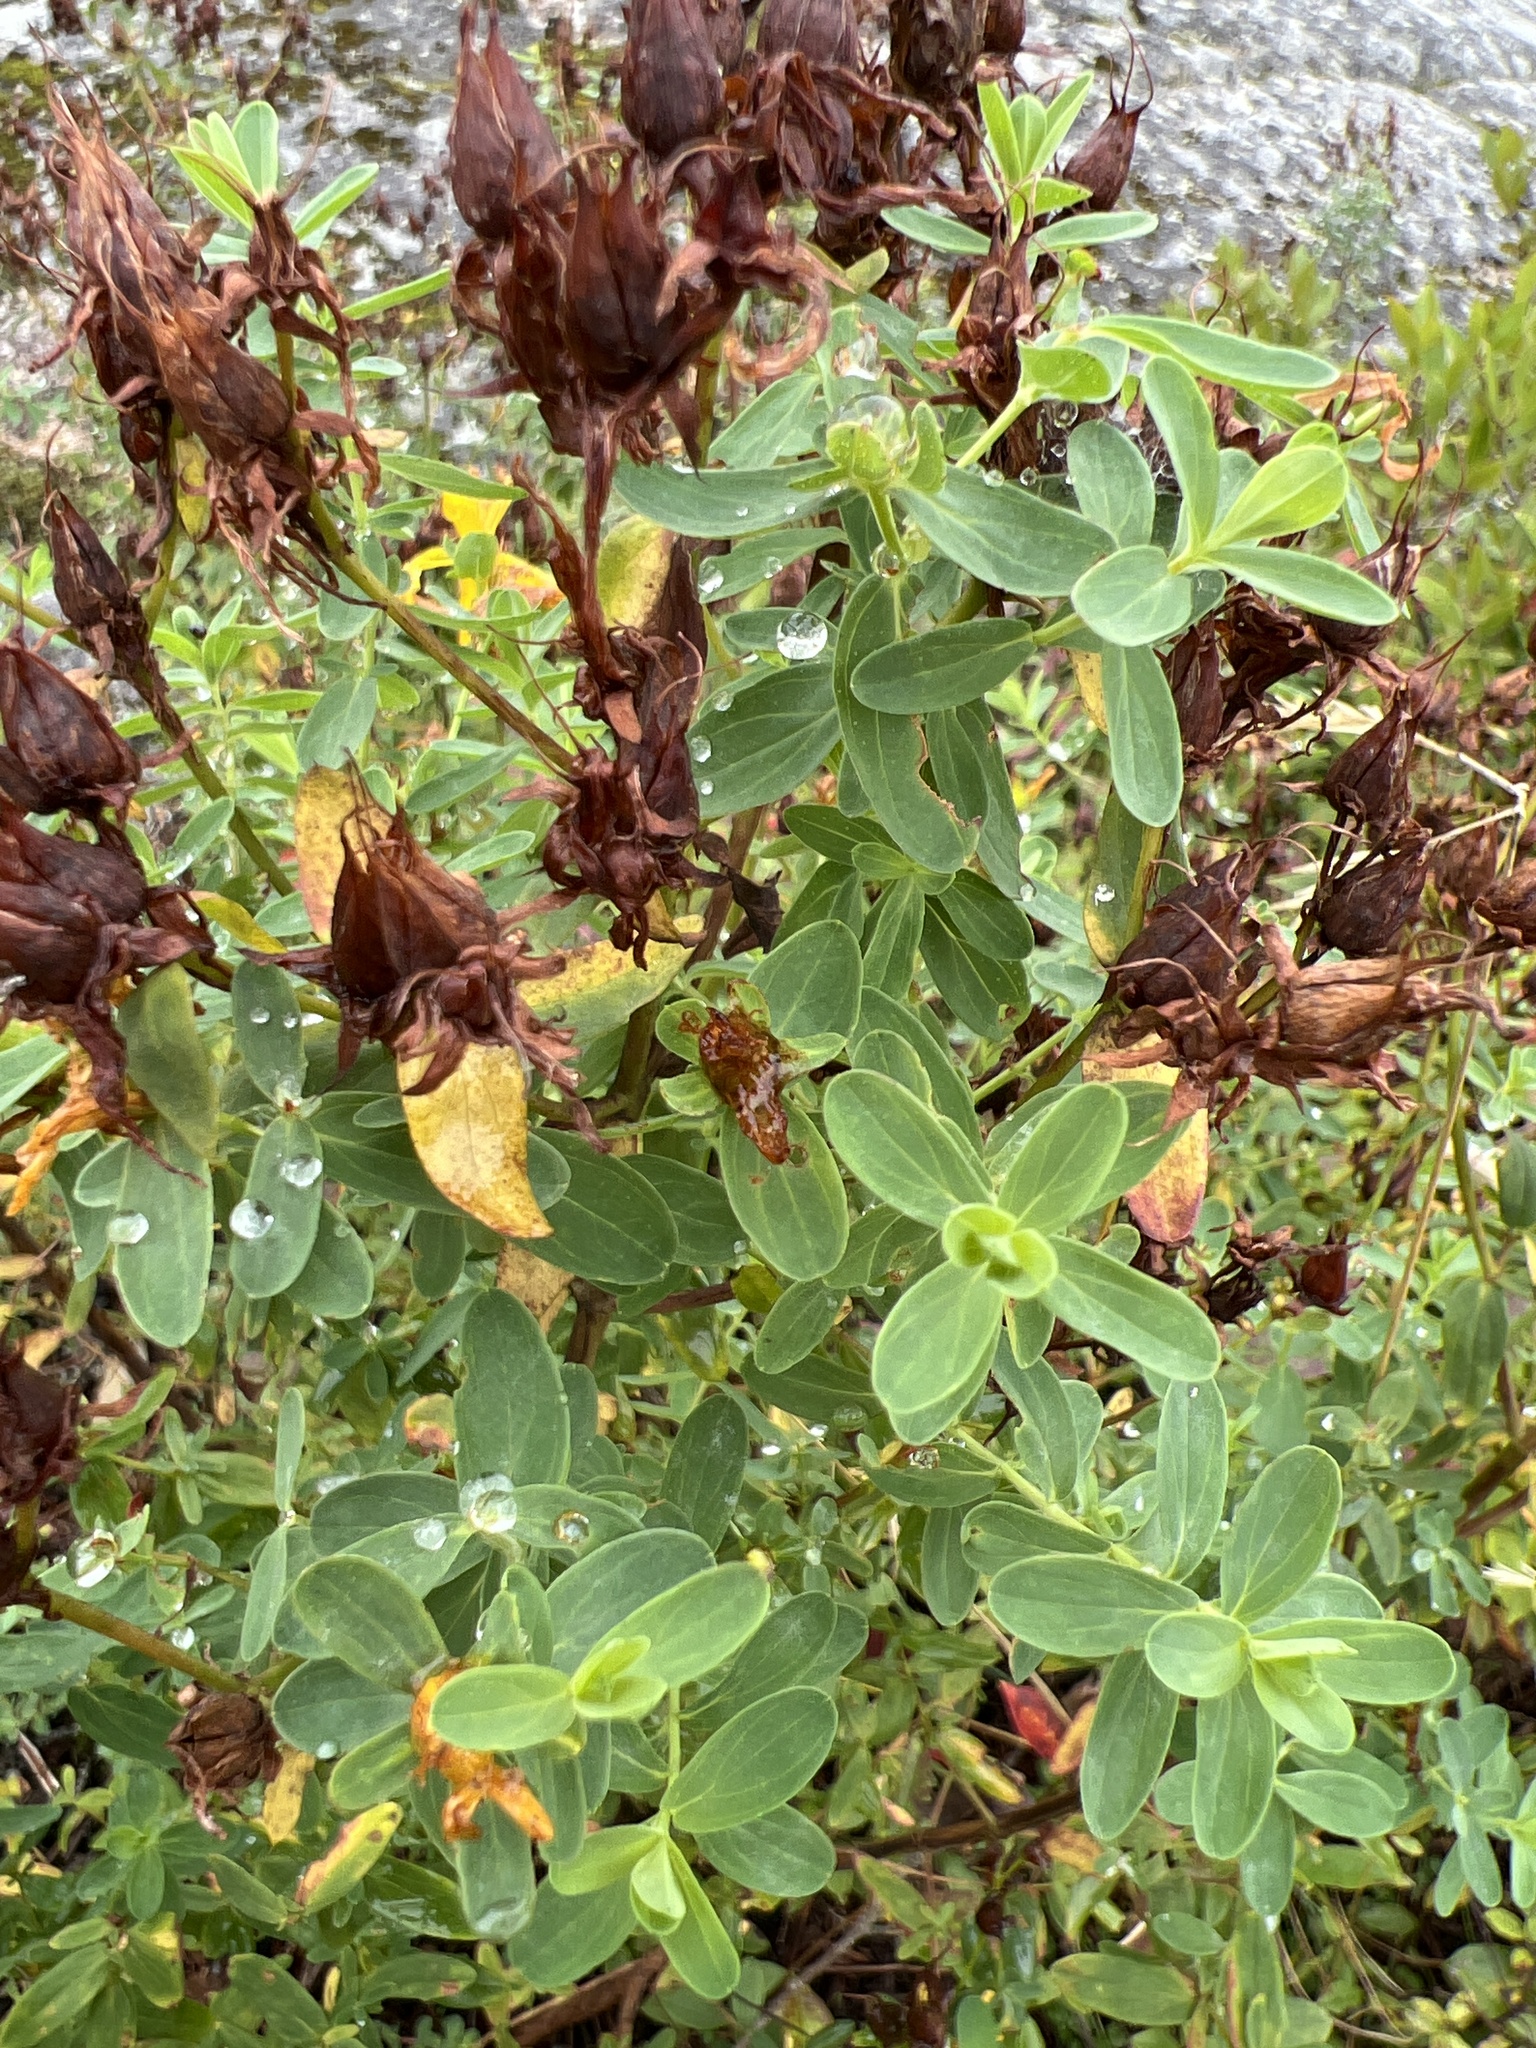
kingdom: Plantae
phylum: Tracheophyta
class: Magnoliopsida
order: Malpighiales
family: Hypericaceae
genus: Hypericum
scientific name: Hypericum perforatum
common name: Common st. johnswort
